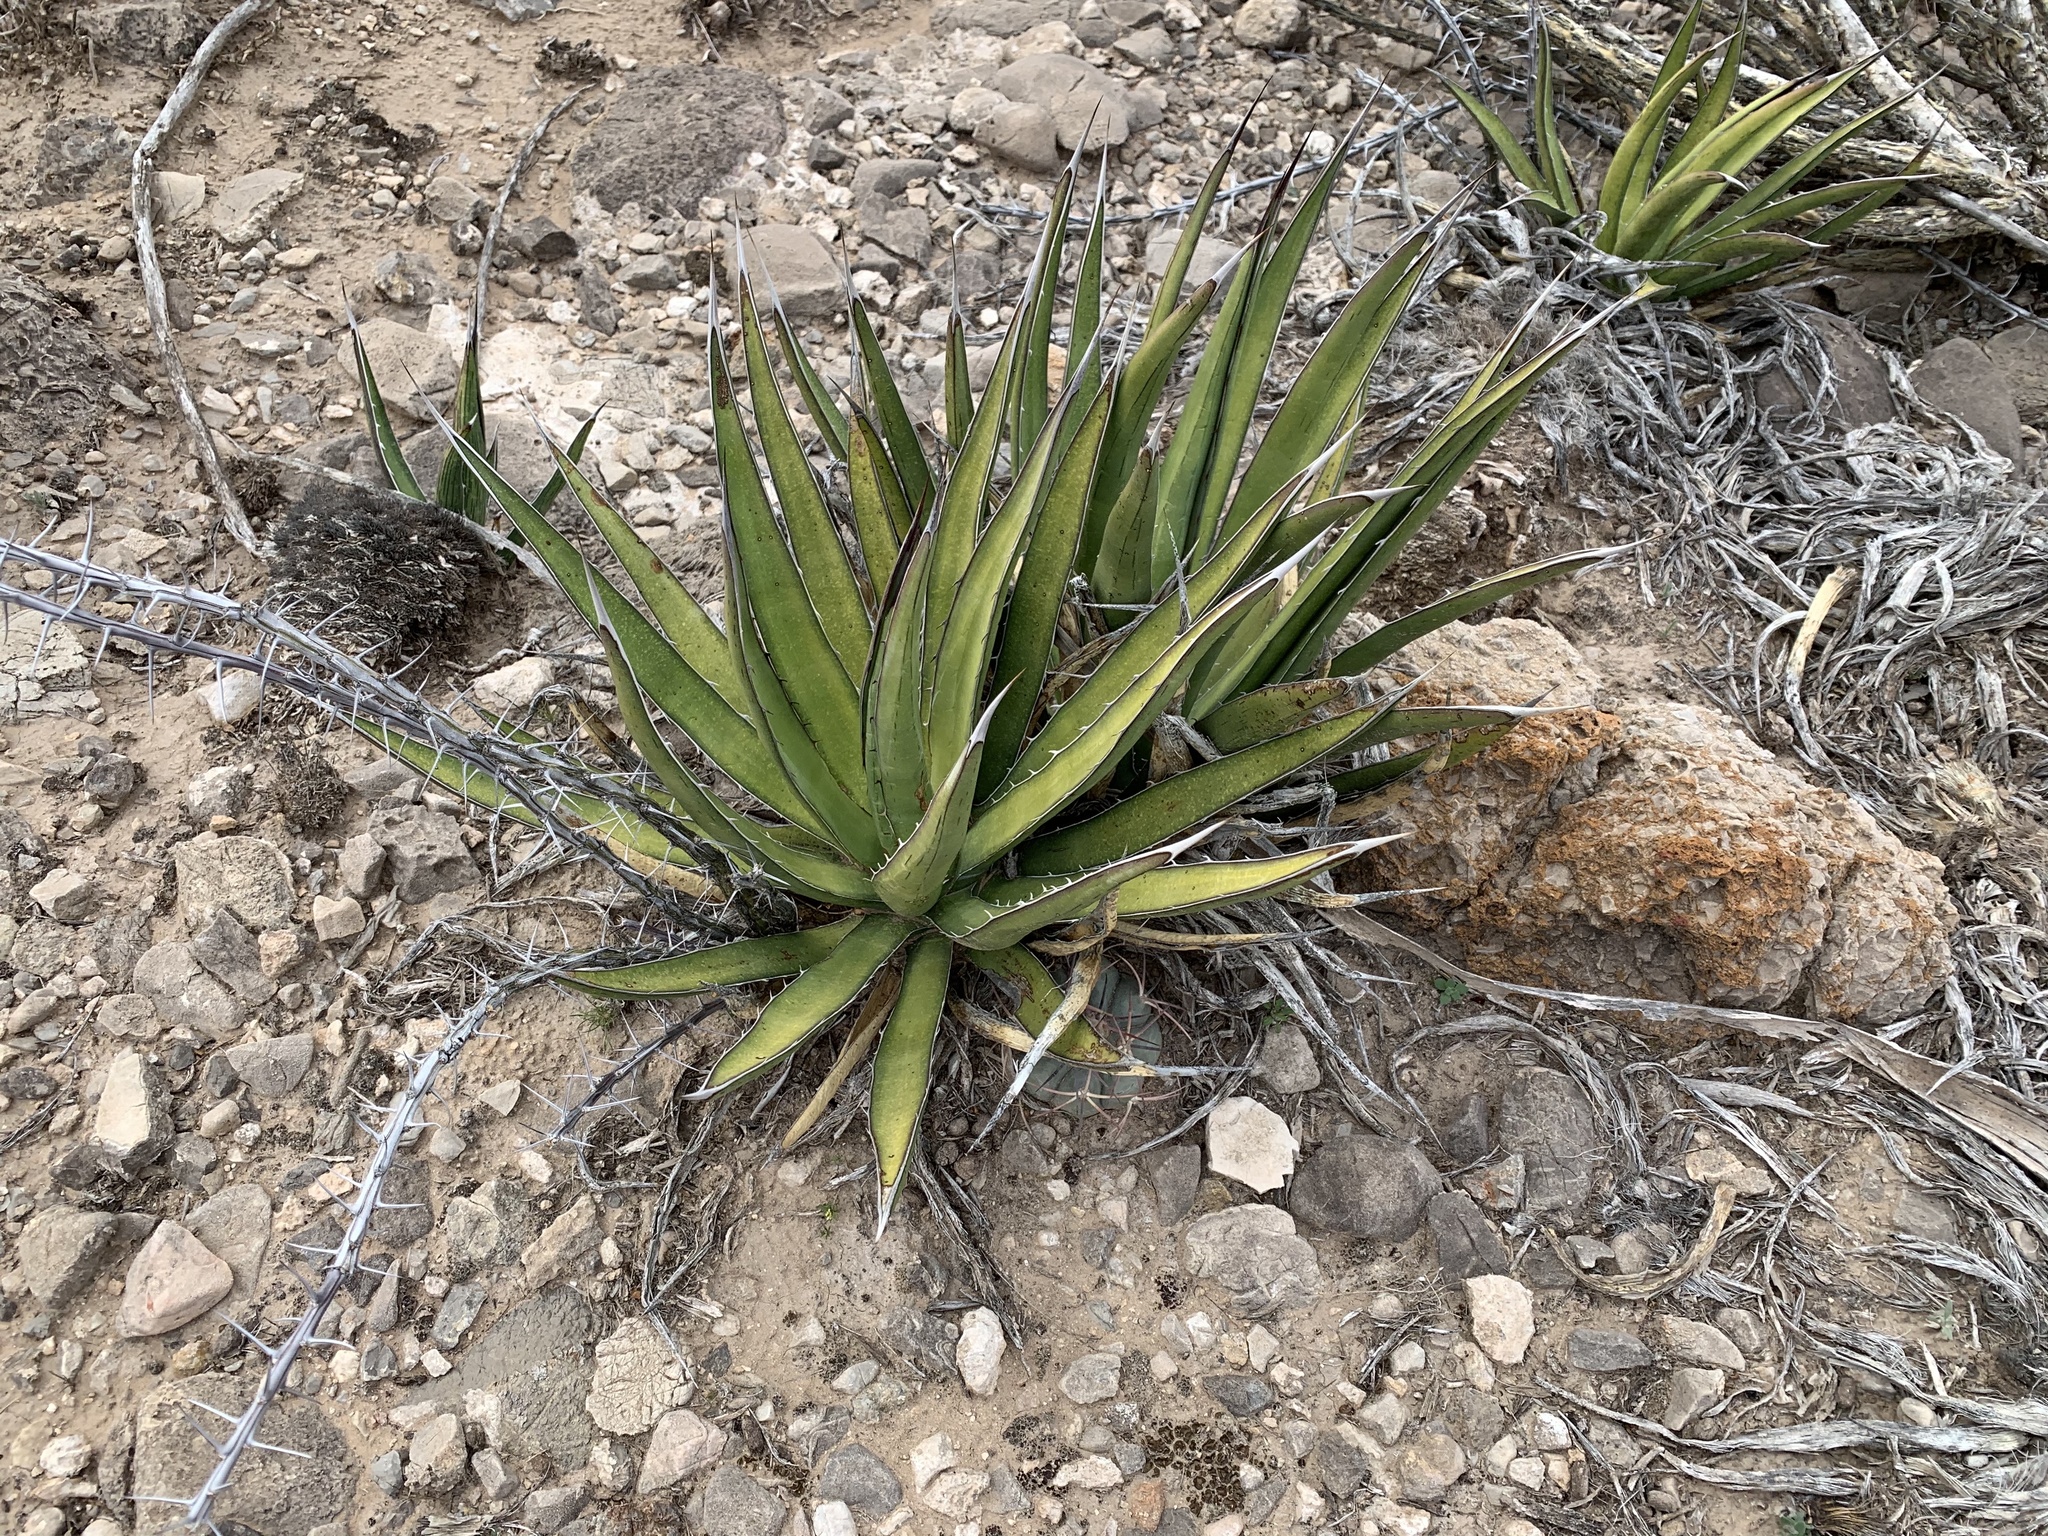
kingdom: Plantae
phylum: Tracheophyta
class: Liliopsida
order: Asparagales
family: Asparagaceae
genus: Agave
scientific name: Agave lechuguilla
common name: Lecheguilla agave
